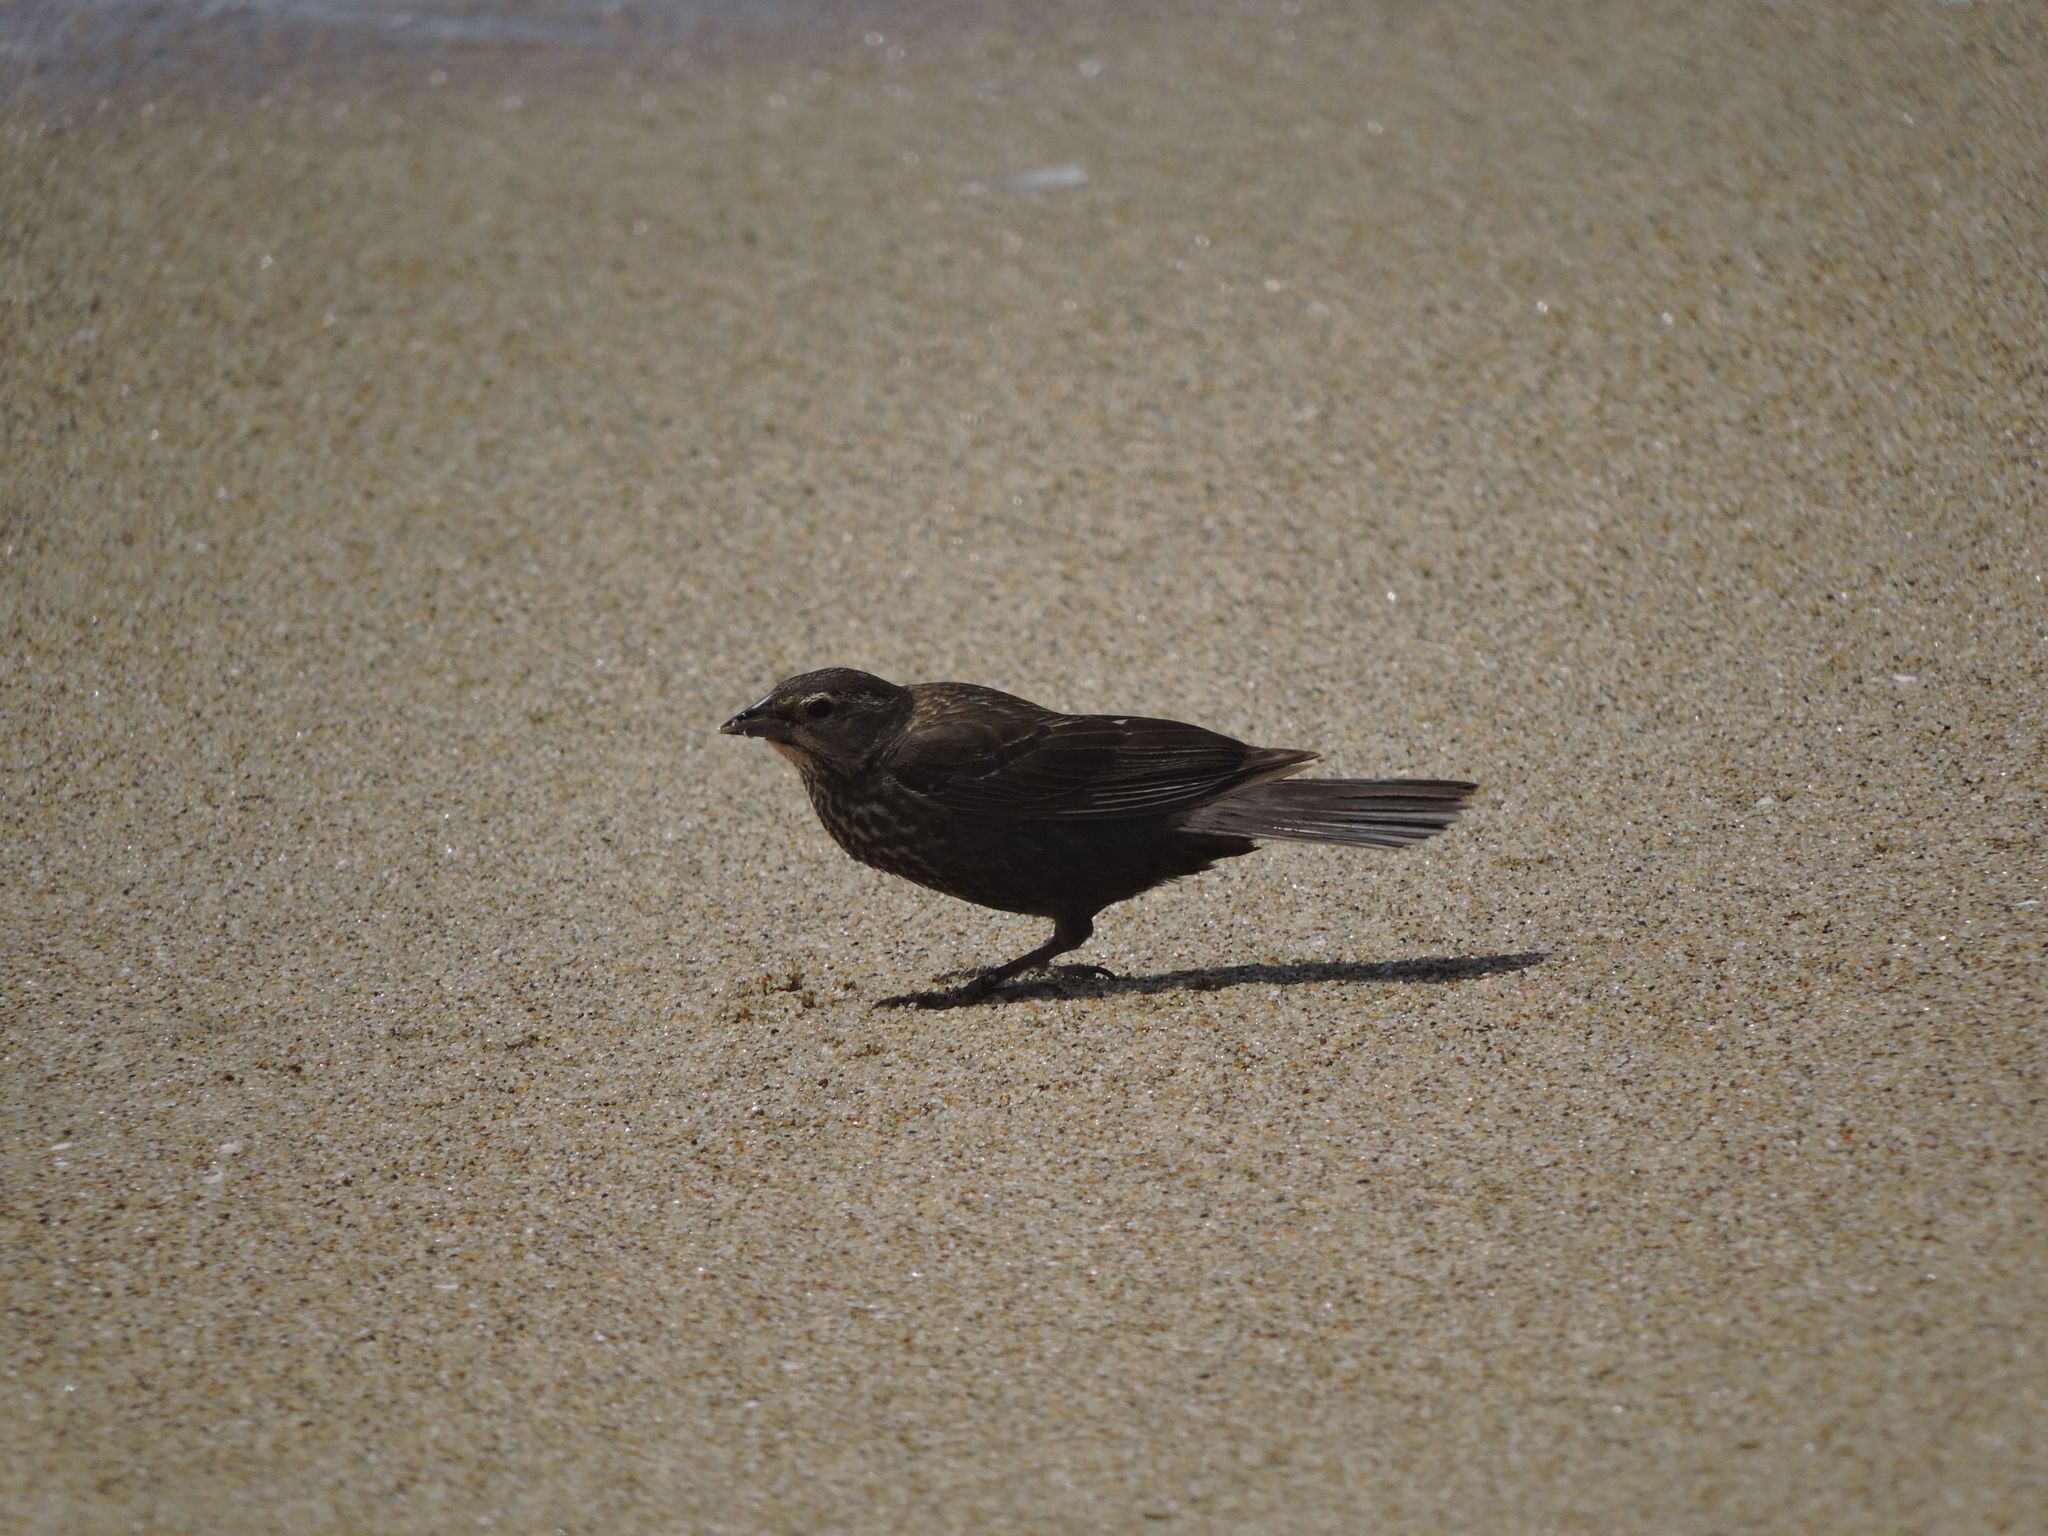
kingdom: Animalia
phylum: Chordata
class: Aves
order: Passeriformes
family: Icteridae
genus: Agelaius
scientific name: Agelaius phoeniceus
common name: Red-winged blackbird
